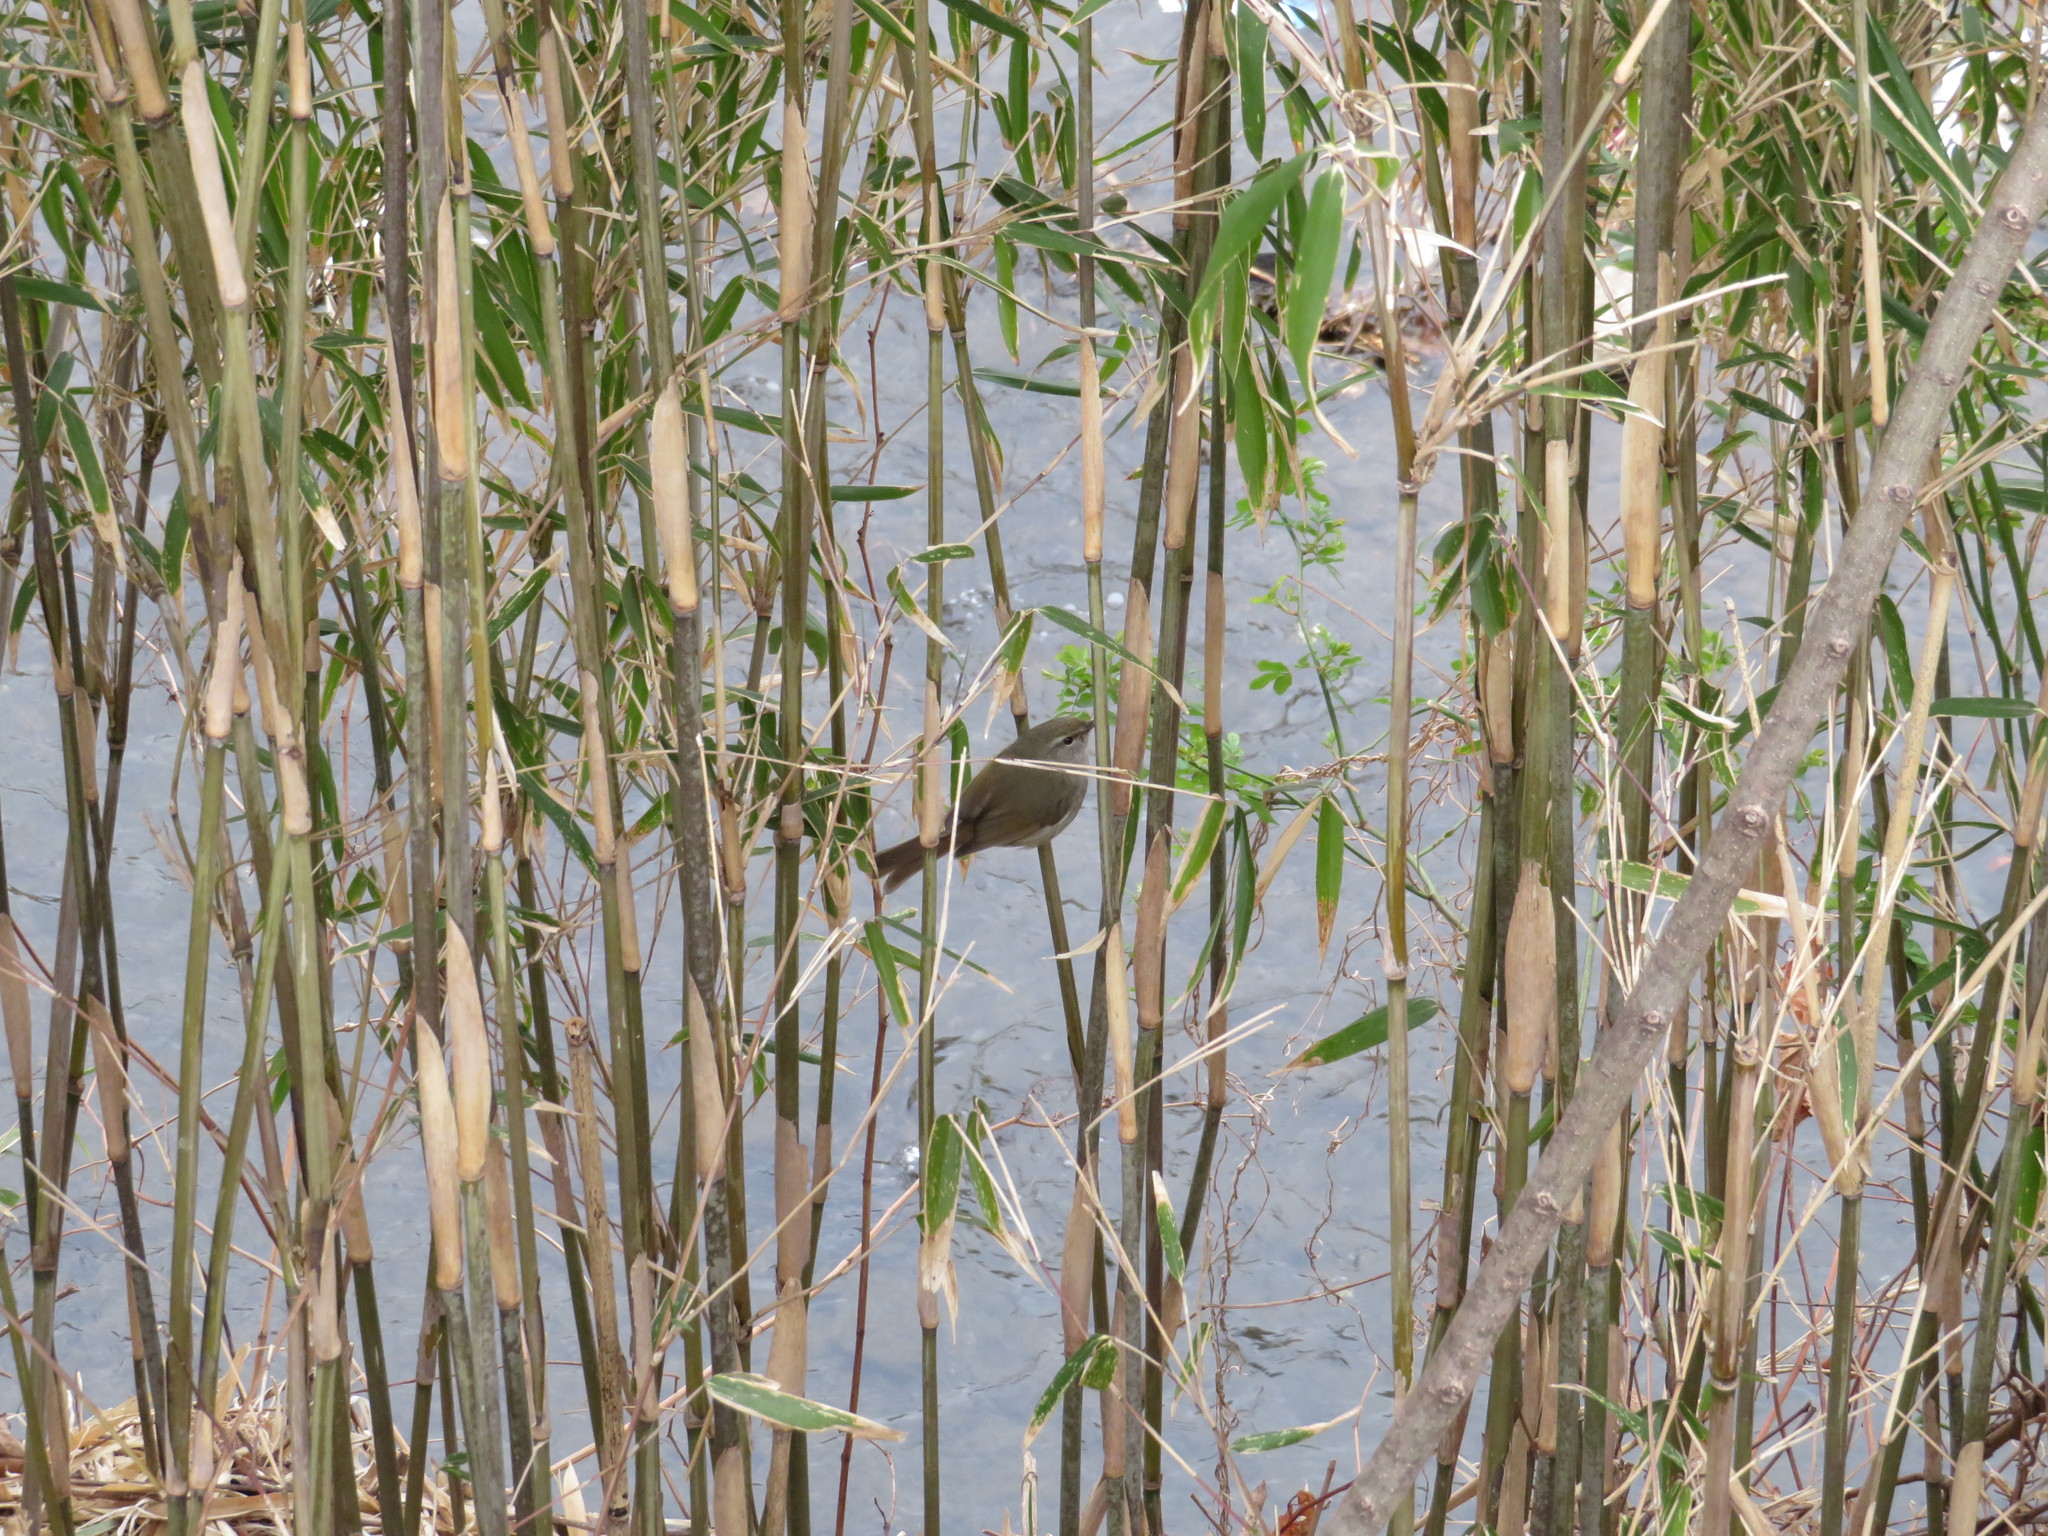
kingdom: Animalia
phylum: Chordata
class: Aves
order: Passeriformes
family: Cettiidae
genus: Horornis
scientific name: Horornis diphone
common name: Japanese bush warbler
